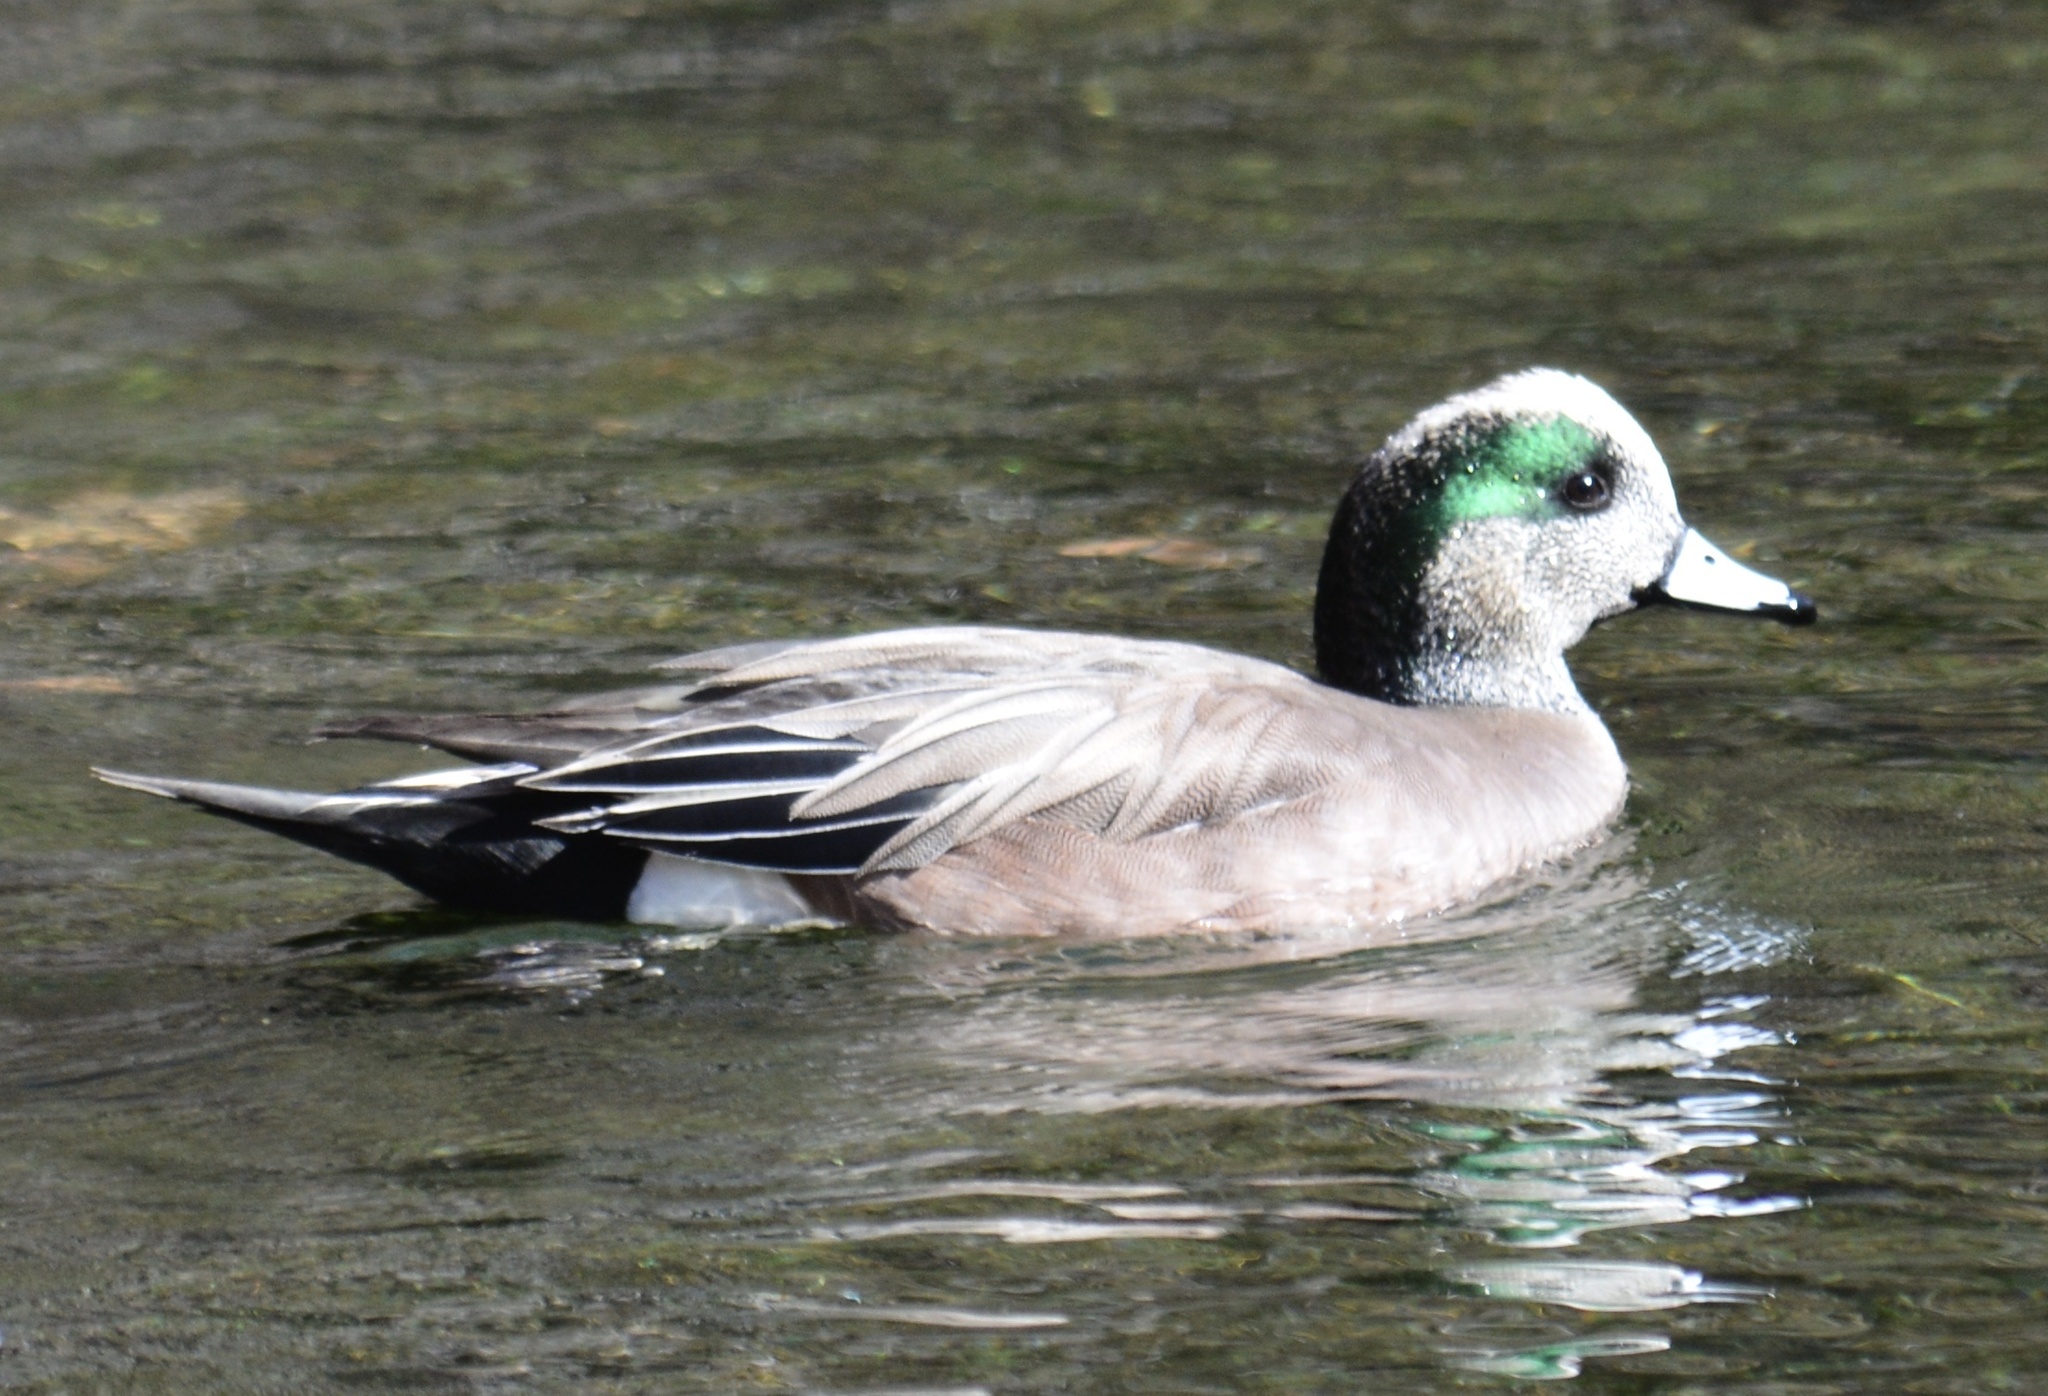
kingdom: Animalia
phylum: Chordata
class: Aves
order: Anseriformes
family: Anatidae
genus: Mareca
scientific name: Mareca americana
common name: American wigeon
